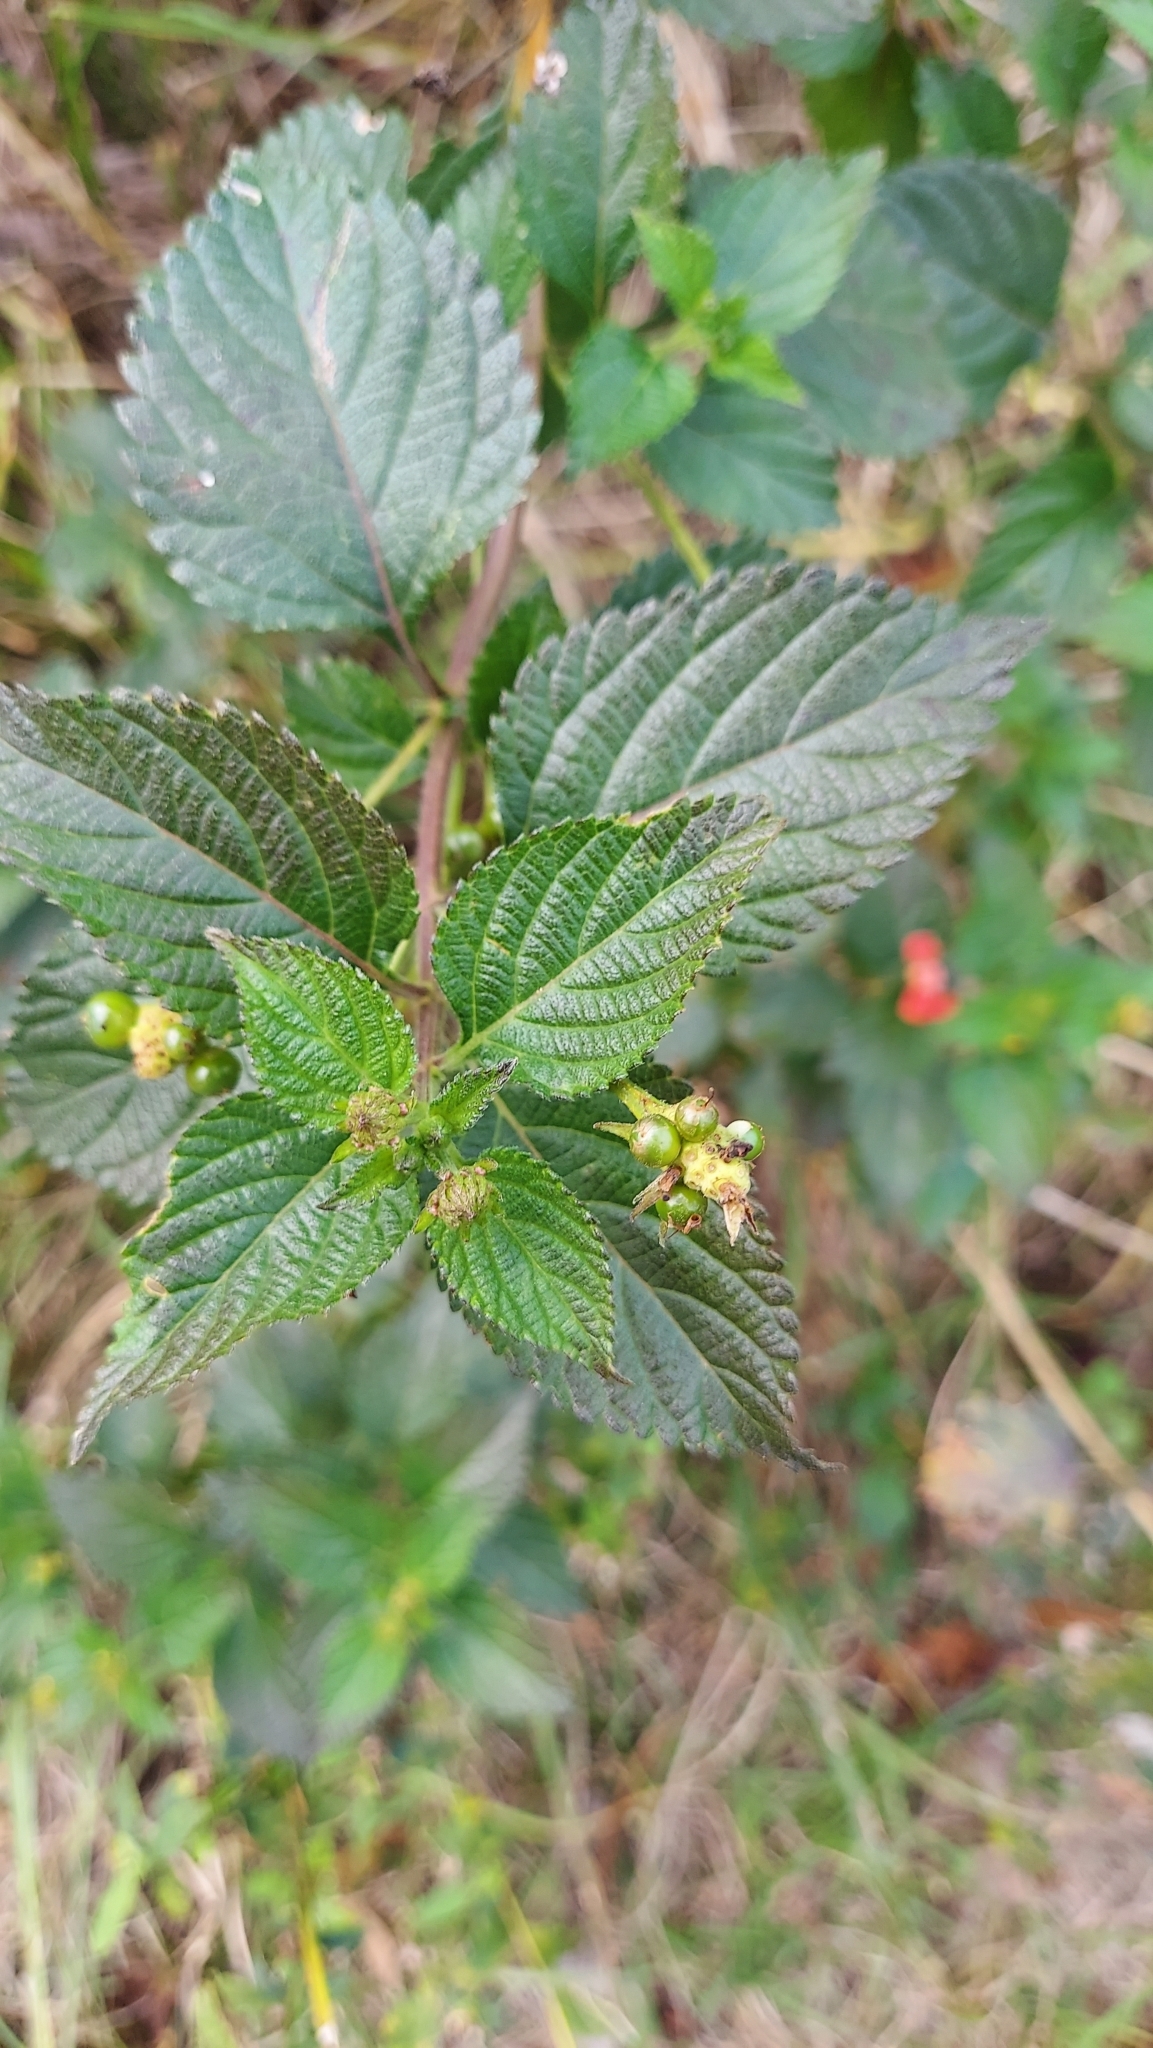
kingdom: Plantae
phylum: Tracheophyta
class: Magnoliopsida
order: Lamiales
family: Verbenaceae
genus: Lantana
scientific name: Lantana strigocamara
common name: Lantana
